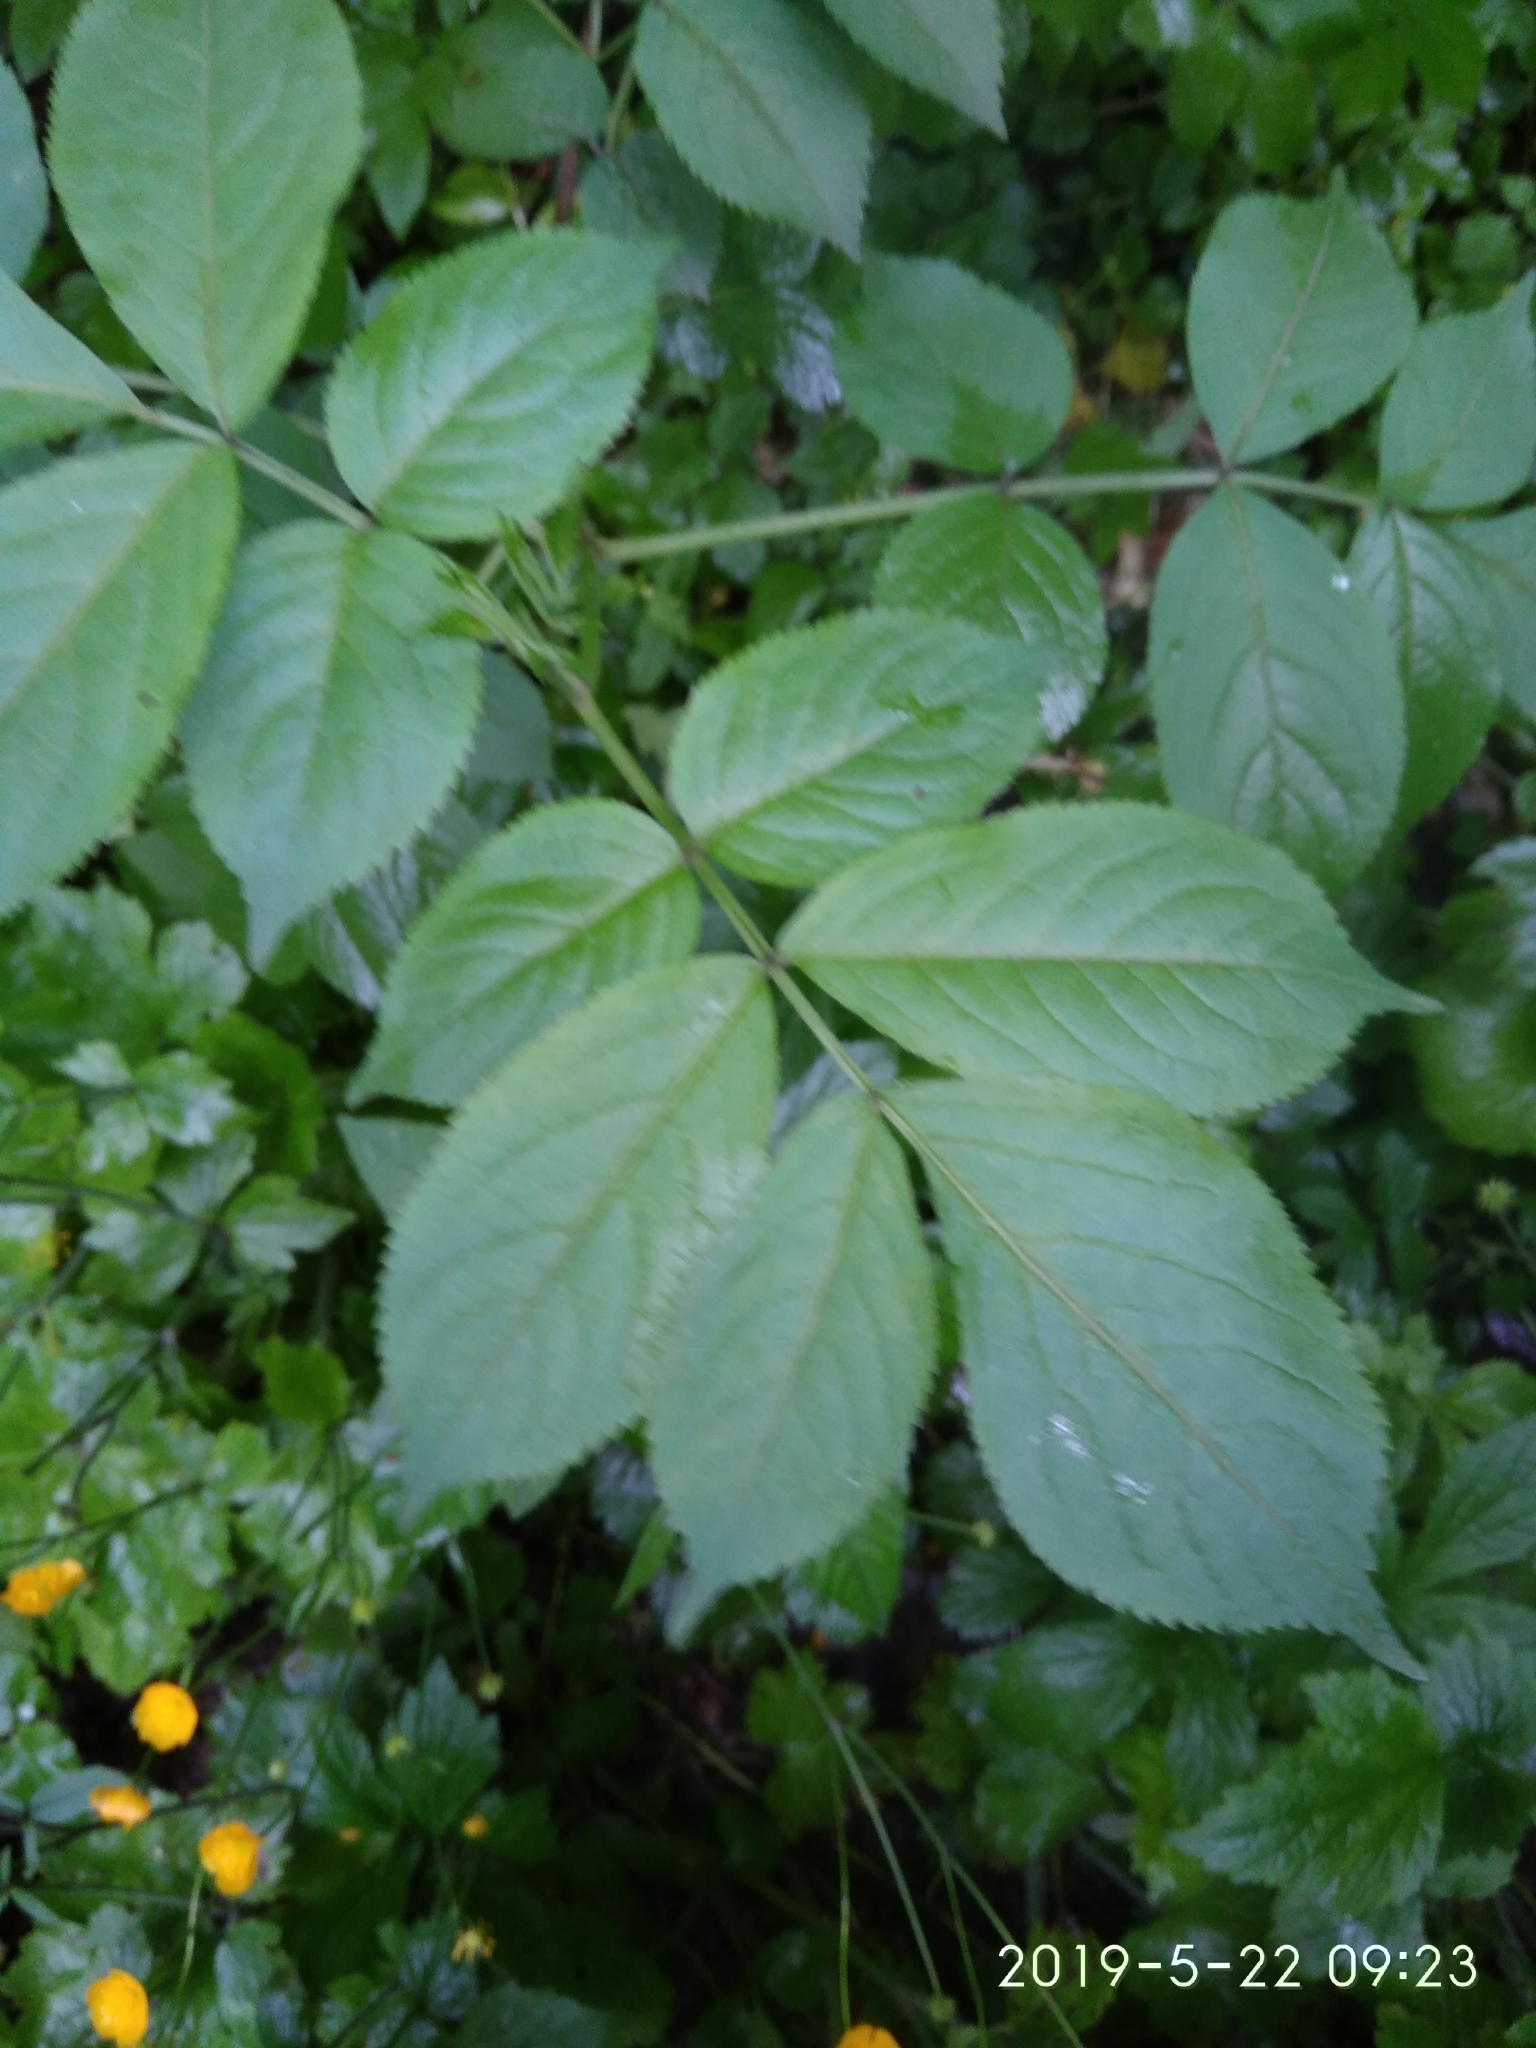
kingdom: Plantae
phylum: Tracheophyta
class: Magnoliopsida
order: Dipsacales
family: Viburnaceae
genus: Sambucus
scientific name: Sambucus nigra
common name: Elder
